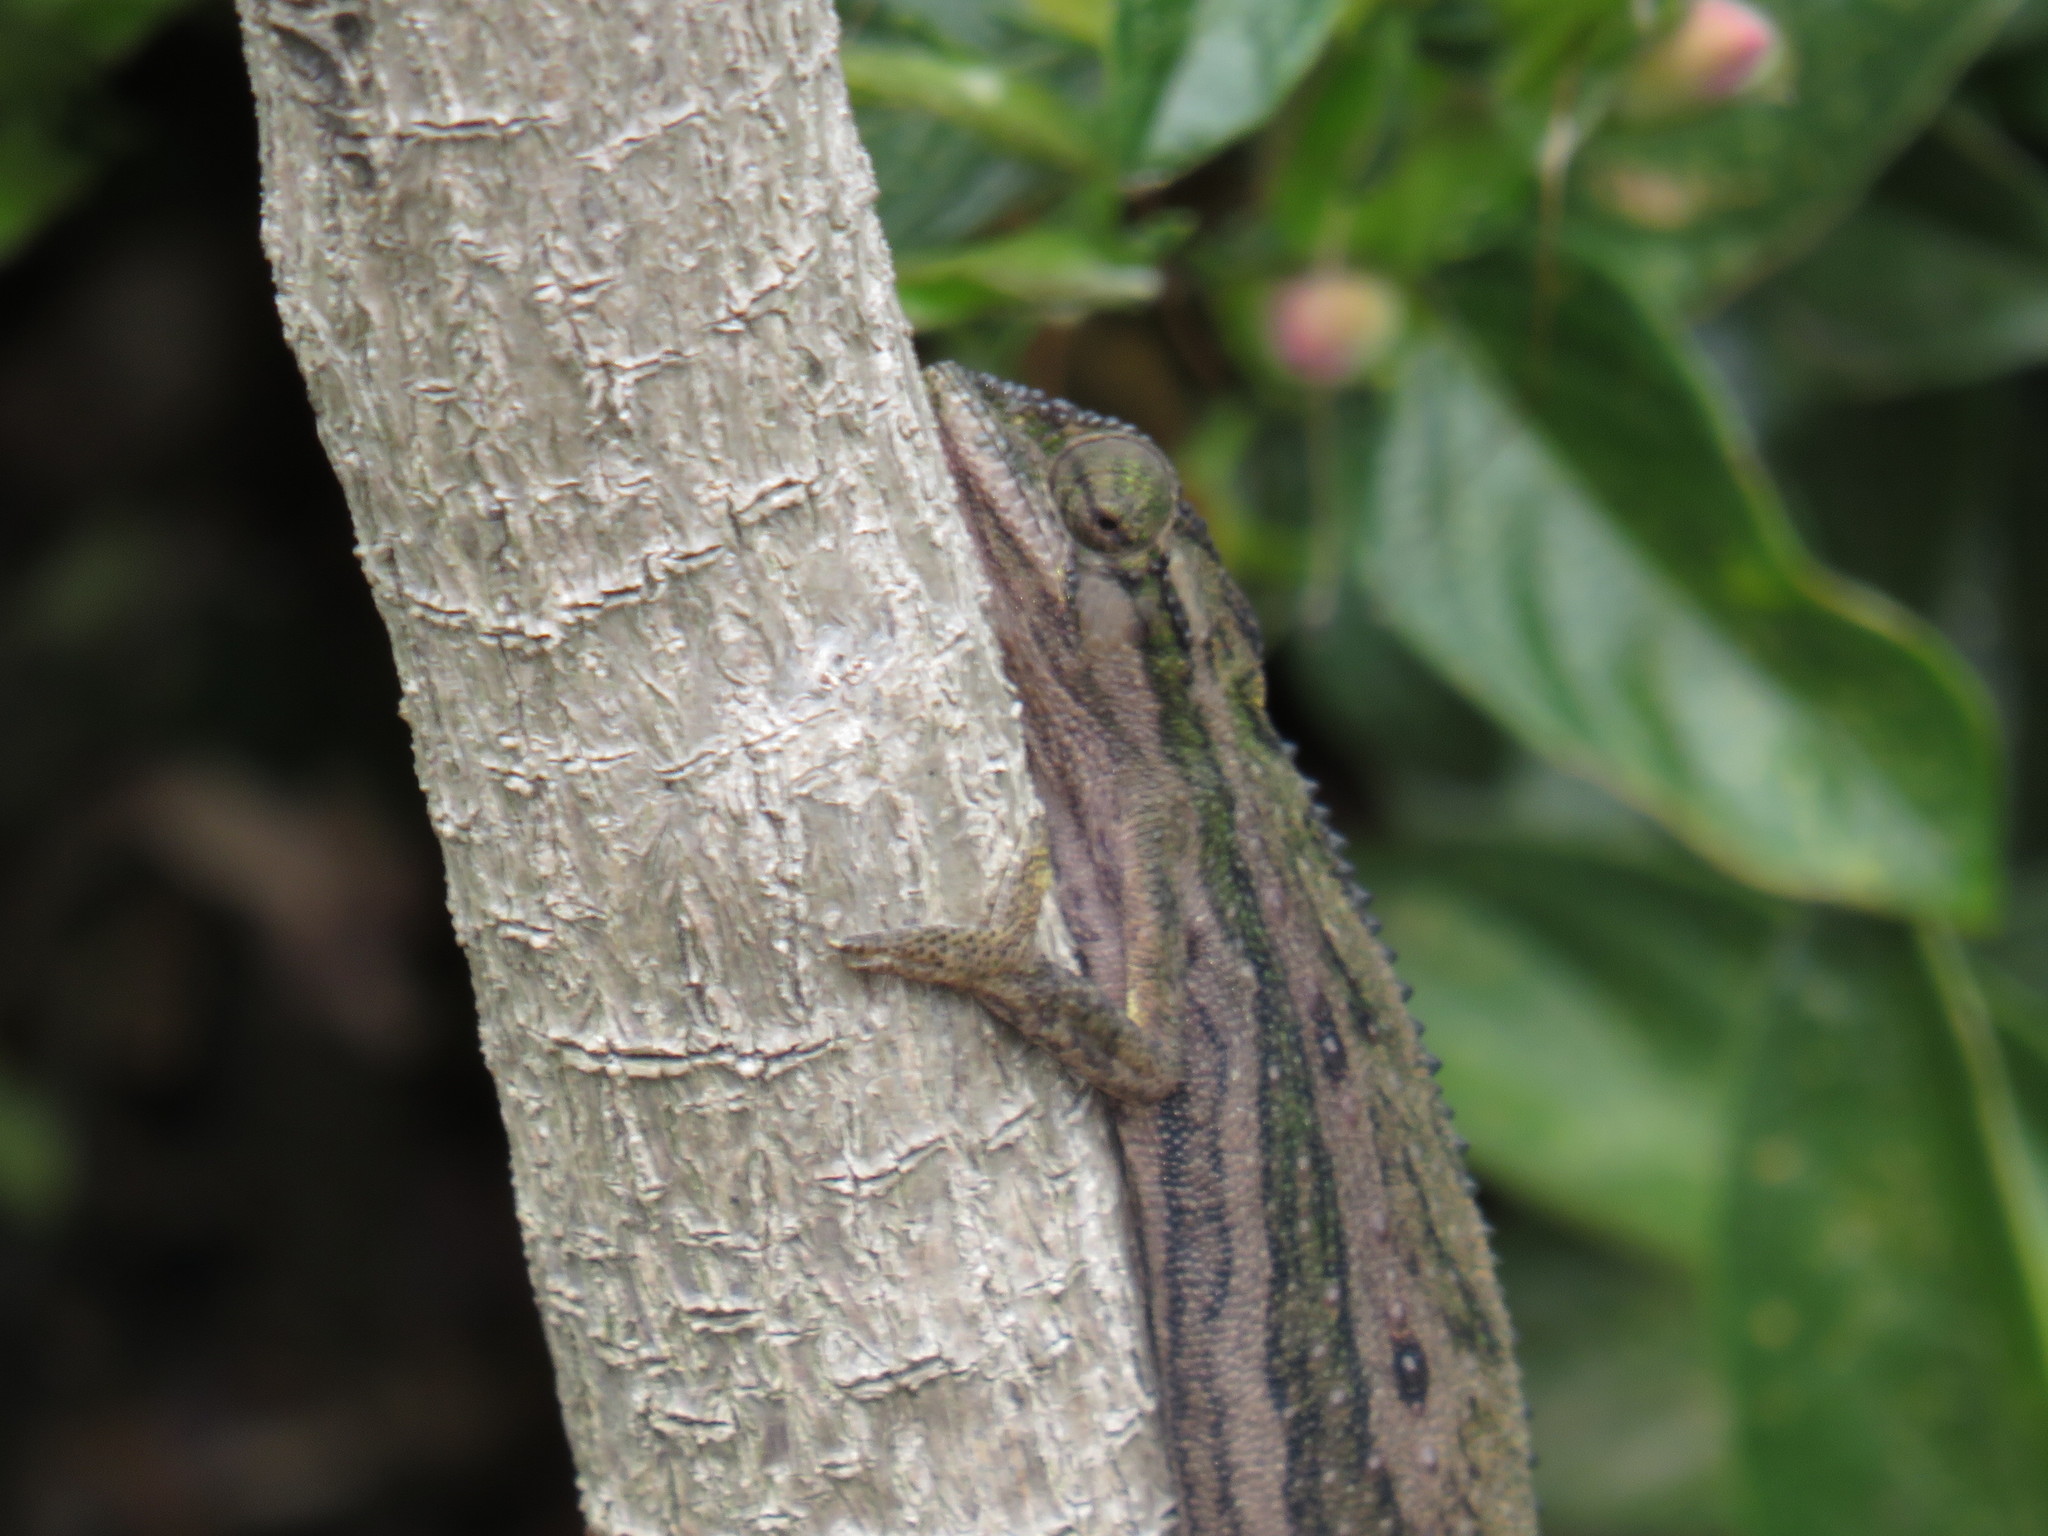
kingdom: Animalia
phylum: Chordata
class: Squamata
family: Chamaeleonidae
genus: Bradypodion
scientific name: Bradypodion pumilum
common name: Cape dwarf chameleon
